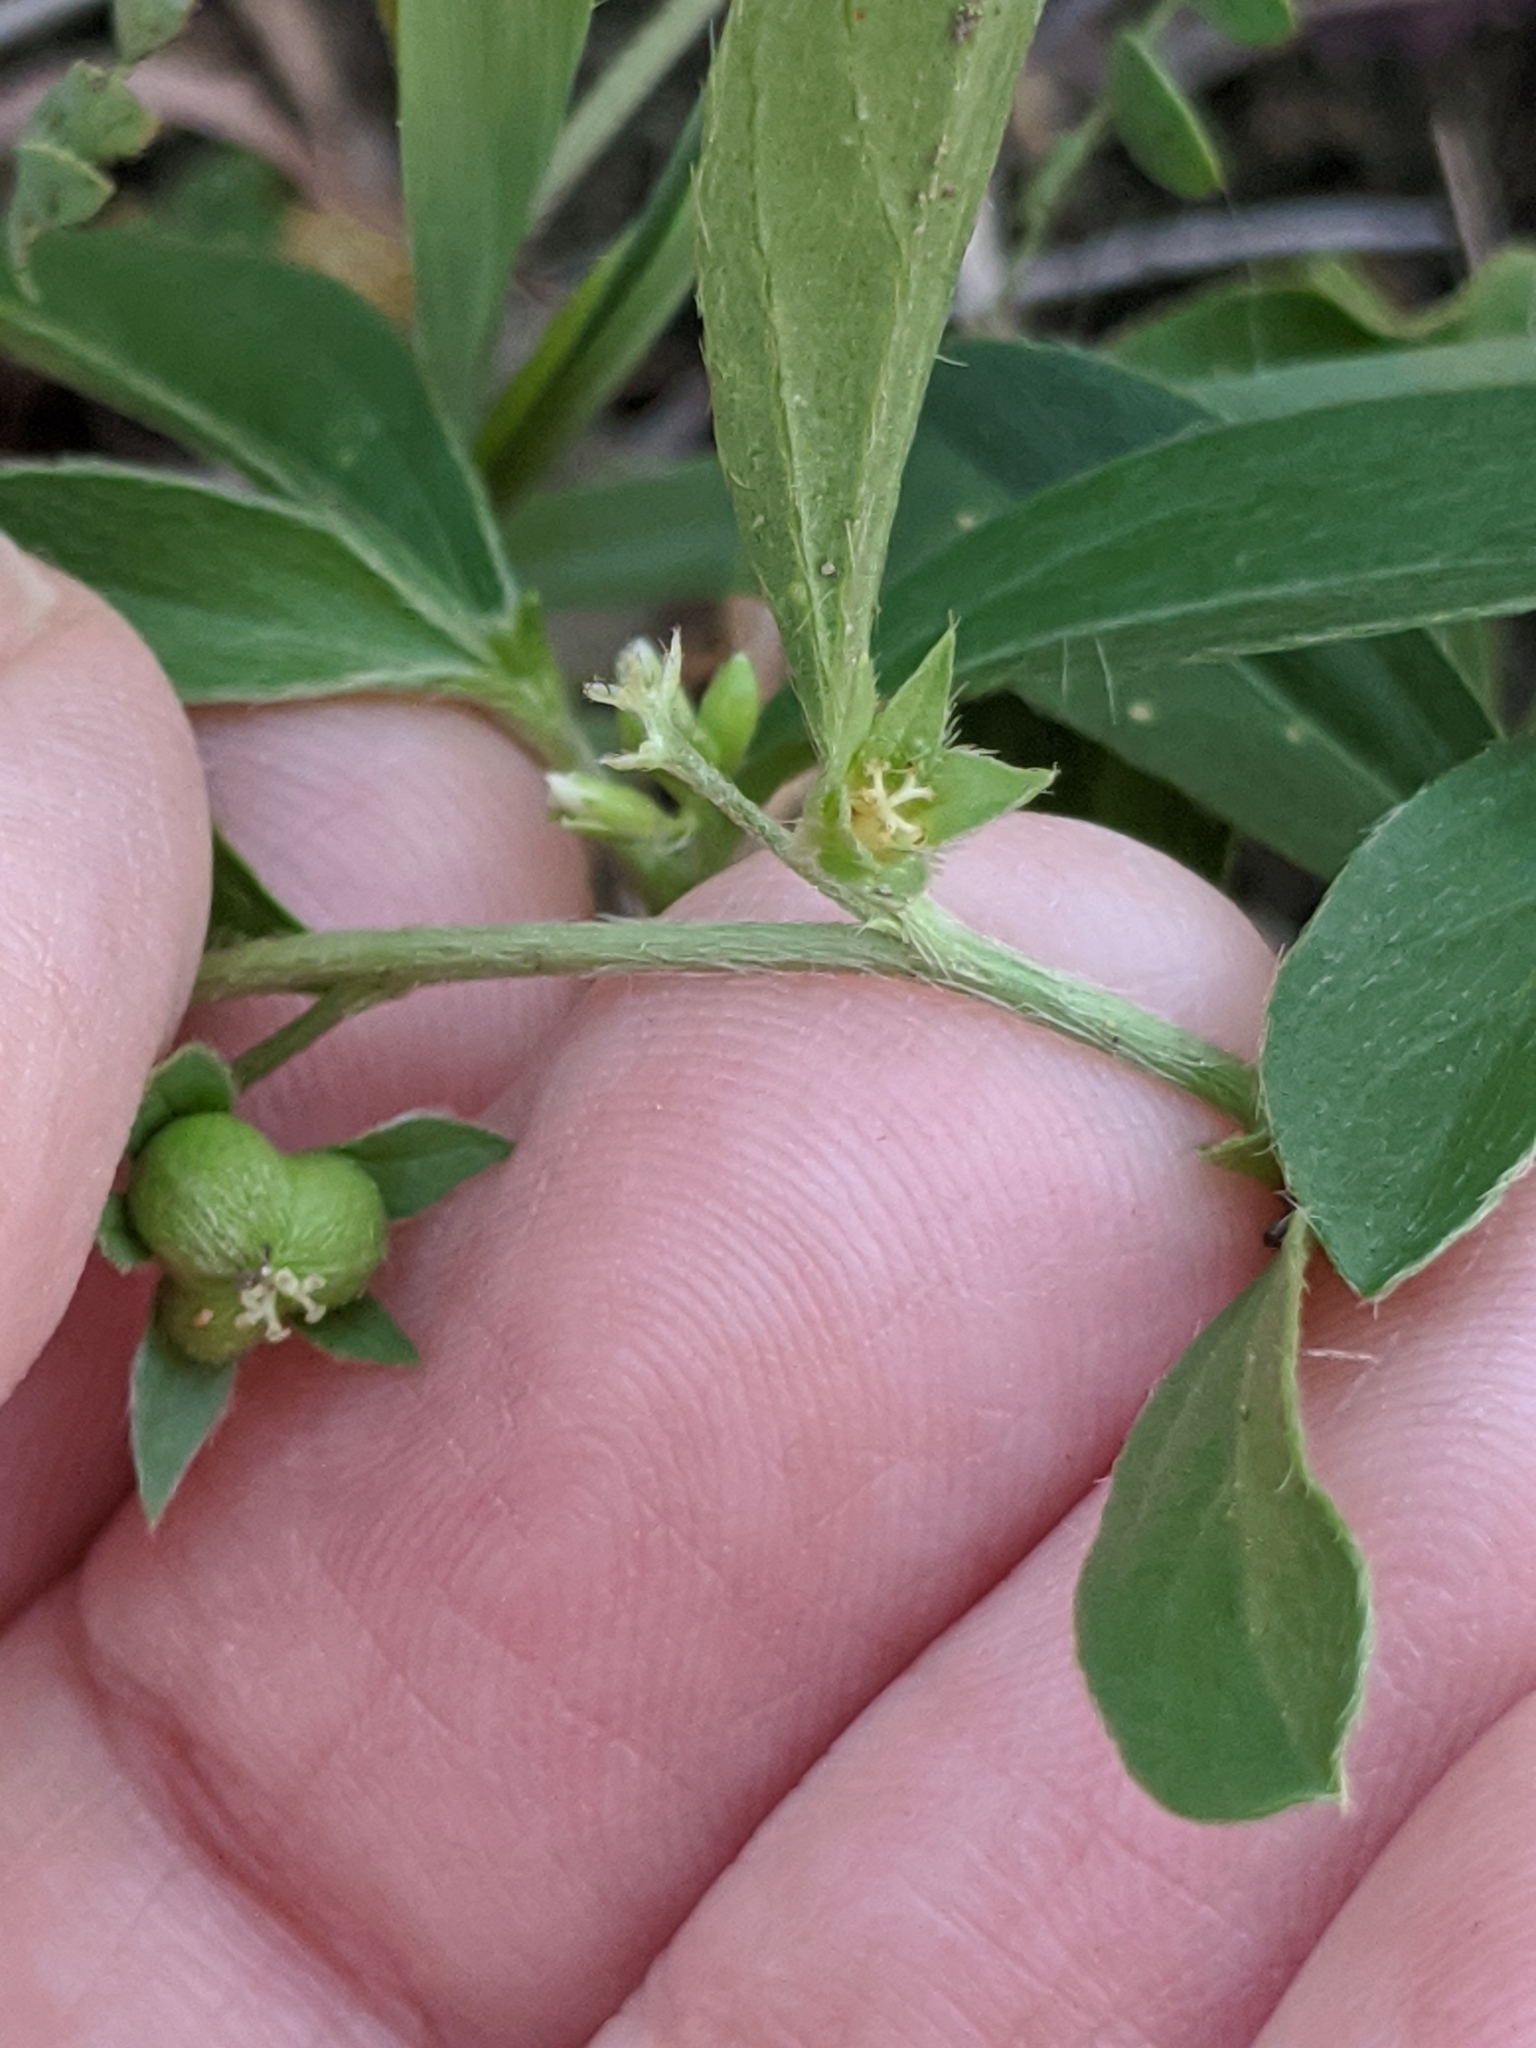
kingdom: Plantae
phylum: Tracheophyta
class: Magnoliopsida
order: Malpighiales
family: Euphorbiaceae
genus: Ditaxis
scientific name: Ditaxis humilis
